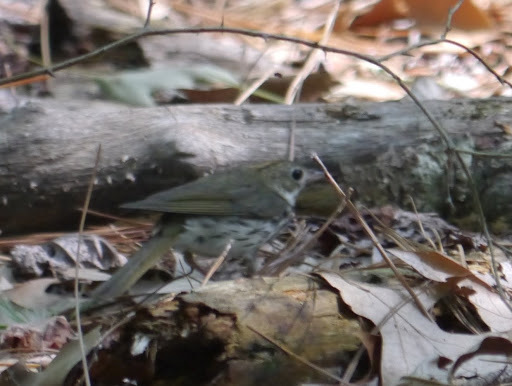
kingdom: Animalia
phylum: Chordata
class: Aves
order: Passeriformes
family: Parulidae
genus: Seiurus
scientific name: Seiurus aurocapilla
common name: Ovenbird
